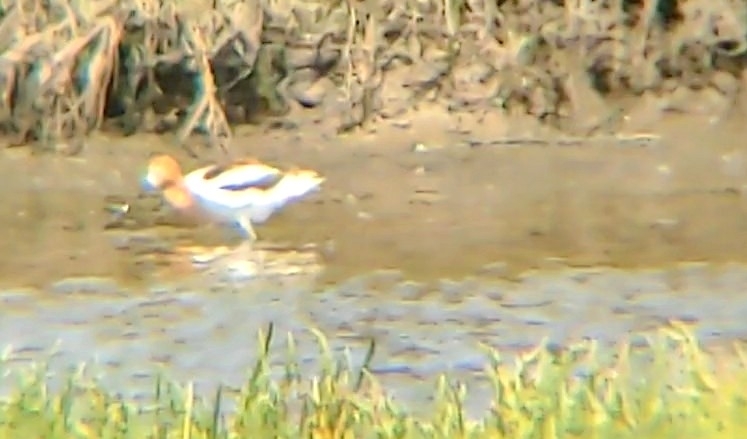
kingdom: Animalia
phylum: Chordata
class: Aves
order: Charadriiformes
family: Recurvirostridae
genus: Recurvirostra
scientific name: Recurvirostra americana
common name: American avocet
